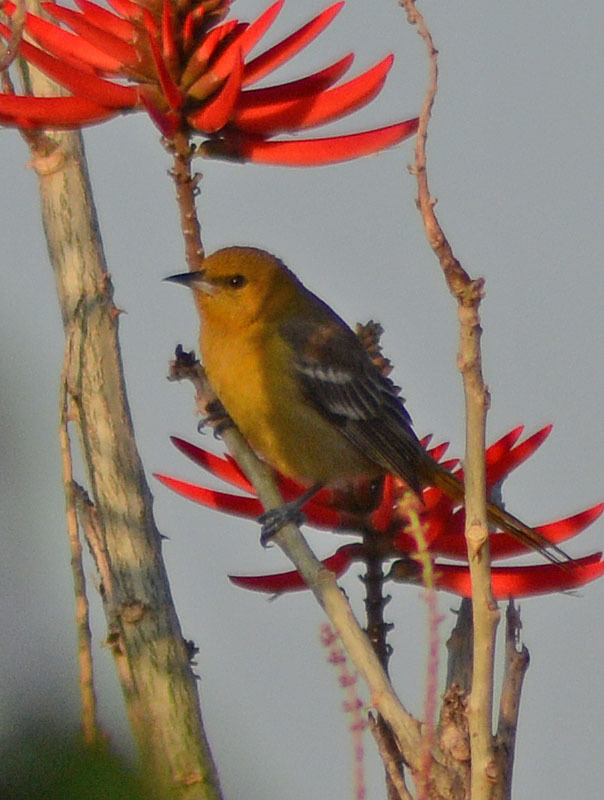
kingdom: Animalia
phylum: Chordata
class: Aves
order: Passeriformes
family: Icteridae
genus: Icterus
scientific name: Icterus cucullatus
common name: Hooded oriole
